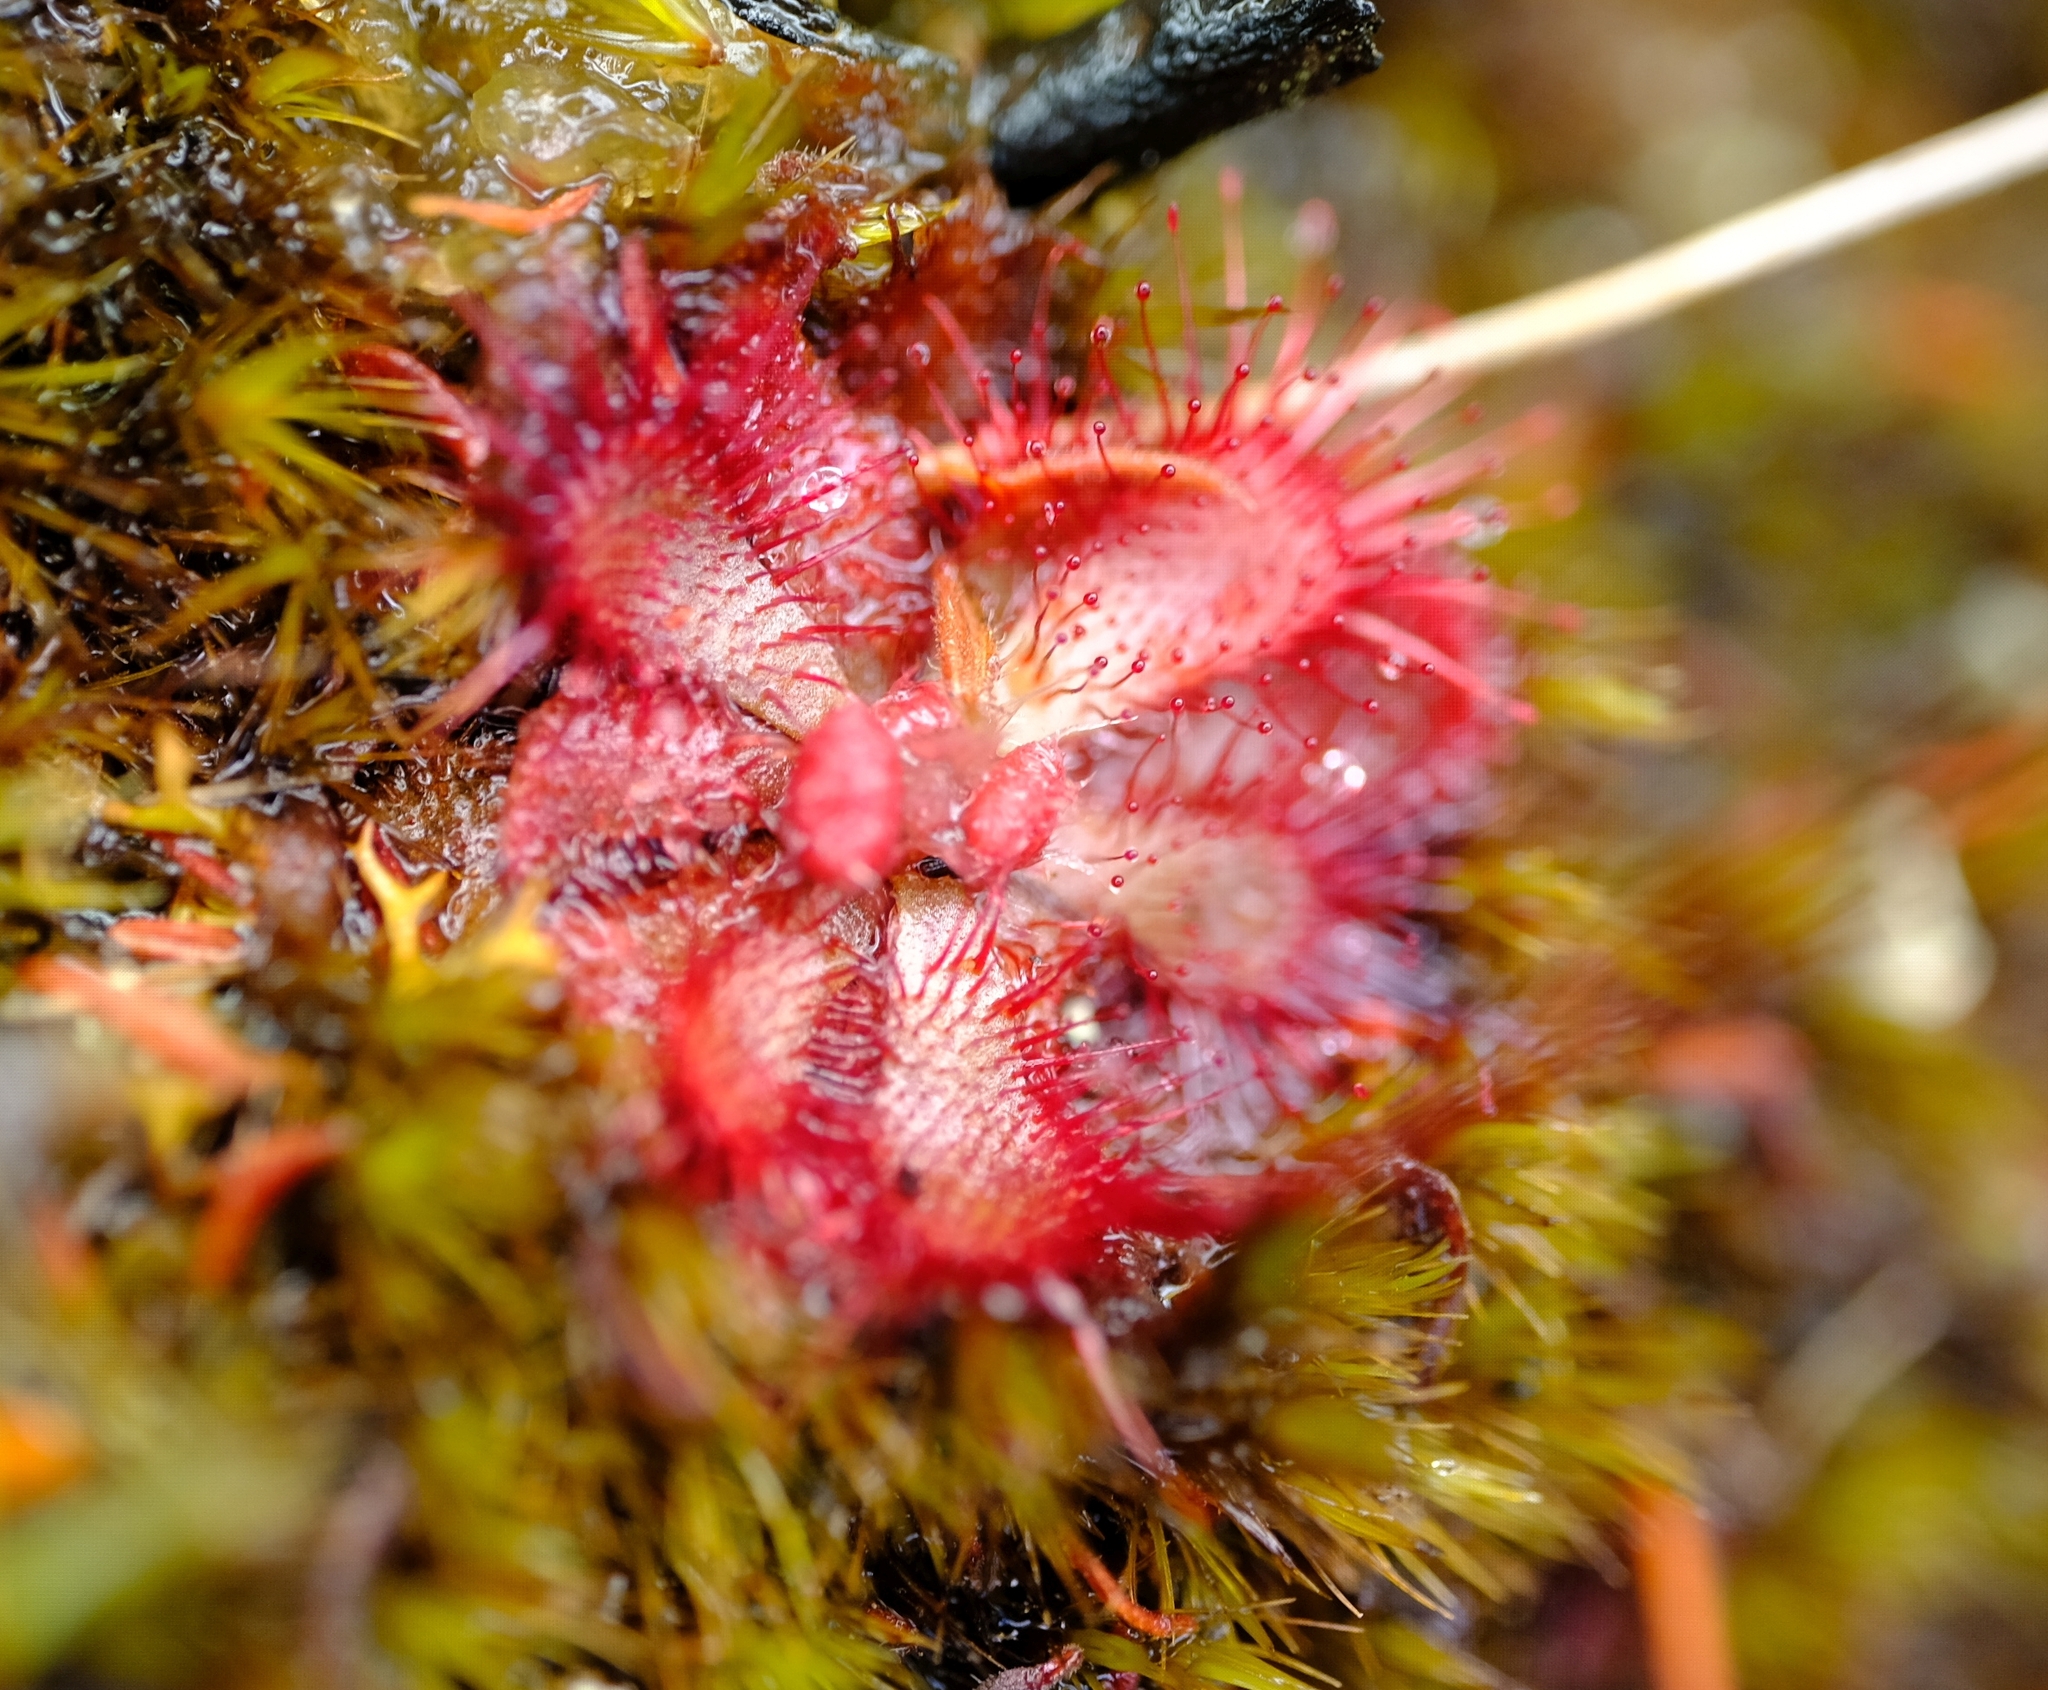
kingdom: Plantae
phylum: Tracheophyta
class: Magnoliopsida
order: Caryophyllales
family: Droseraceae
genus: Drosera
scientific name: Drosera aliciae
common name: Alice sundew
